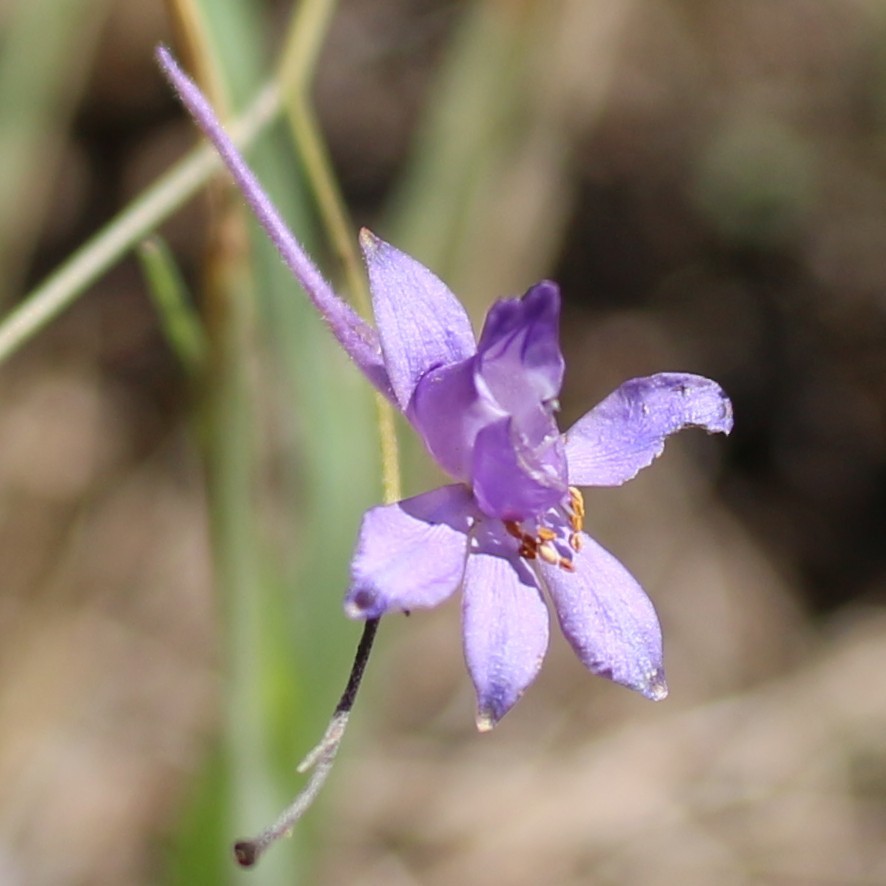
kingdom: Plantae
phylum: Tracheophyta
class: Magnoliopsida
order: Ranunculales
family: Ranunculaceae
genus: Delphinium
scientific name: Delphinium consolida
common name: Branching larkspur
